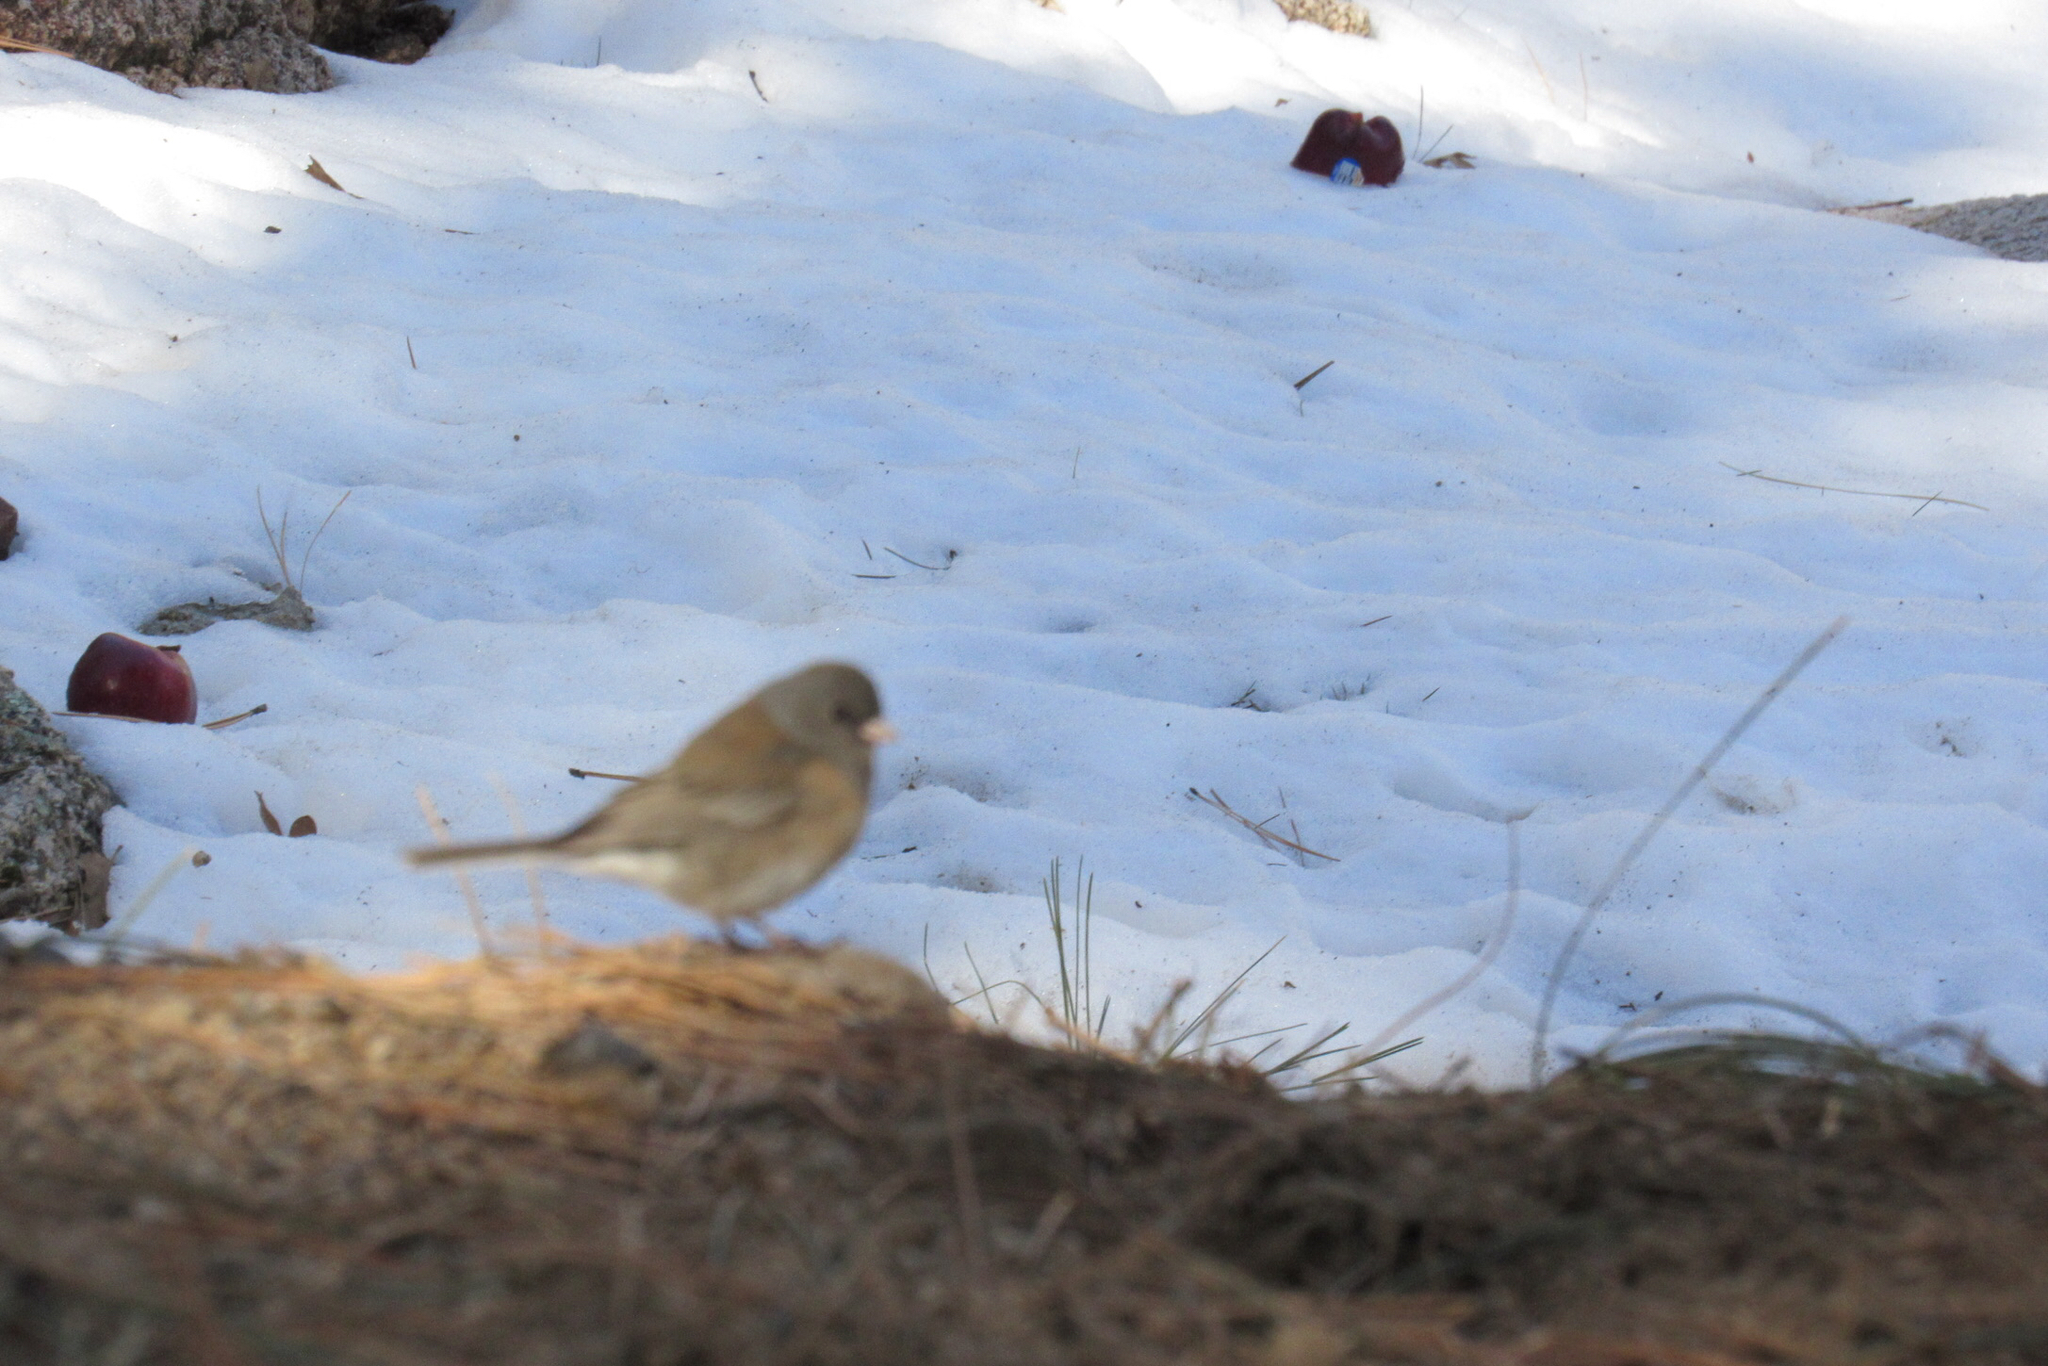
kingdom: Animalia
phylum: Chordata
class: Aves
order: Passeriformes
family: Passerellidae
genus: Junco
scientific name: Junco hyemalis
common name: Dark-eyed junco
